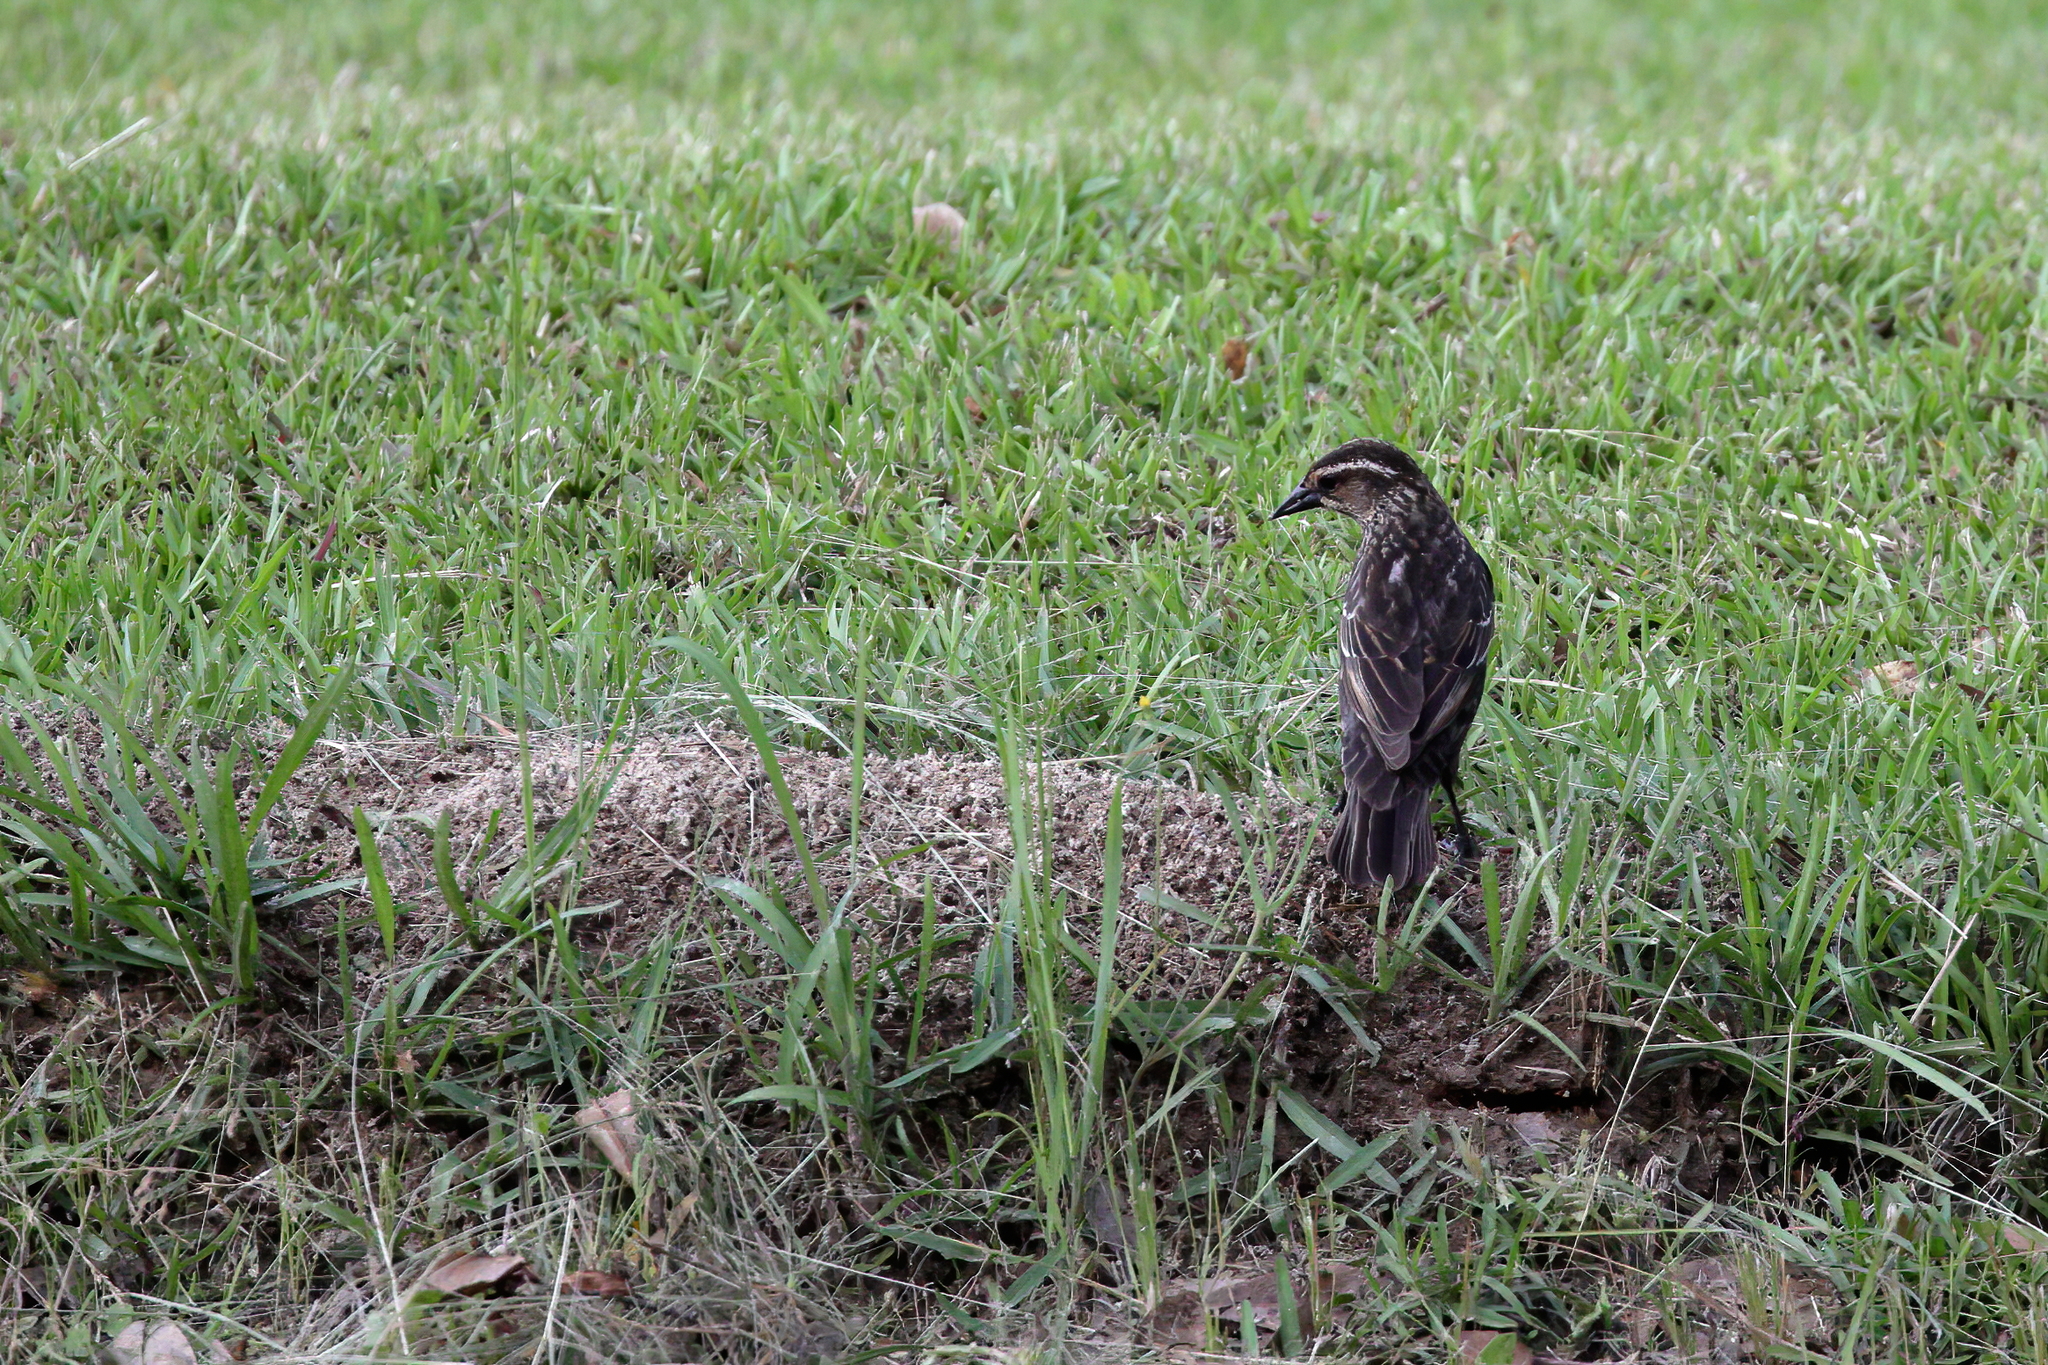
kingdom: Animalia
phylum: Chordata
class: Aves
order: Passeriformes
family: Icteridae
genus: Agelaius
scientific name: Agelaius phoeniceus
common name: Red-winged blackbird
